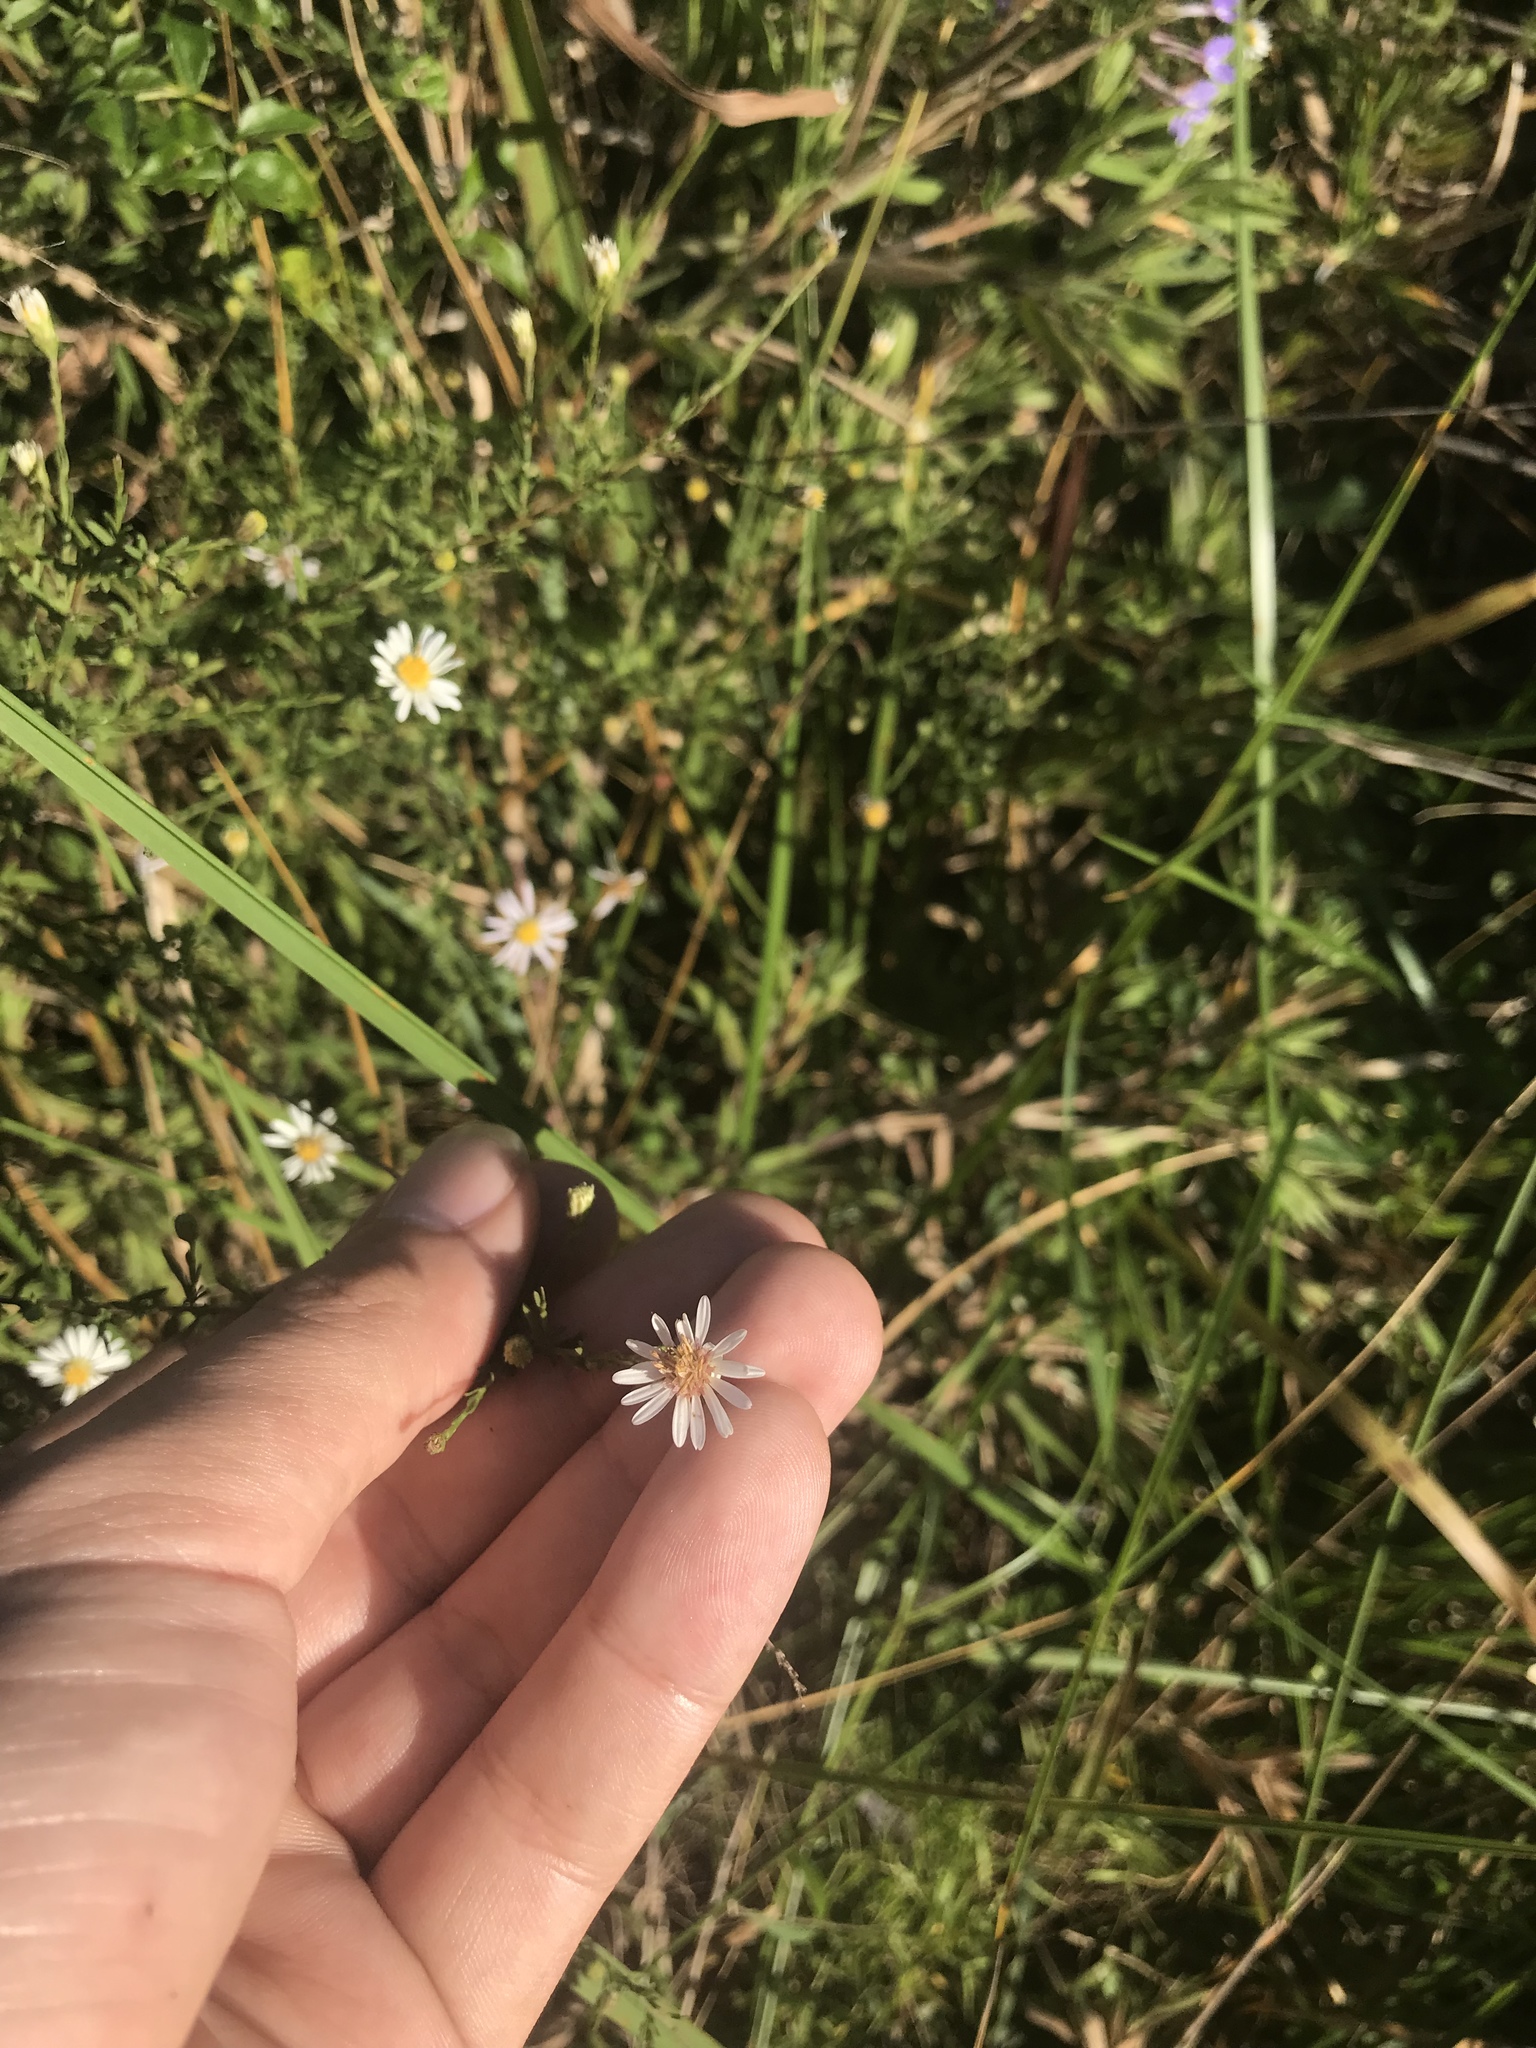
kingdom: Plantae
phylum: Tracheophyta
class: Magnoliopsida
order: Asterales
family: Asteraceae
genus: Symphyotrichum
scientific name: Symphyotrichum dumosum
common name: Bushy aster
